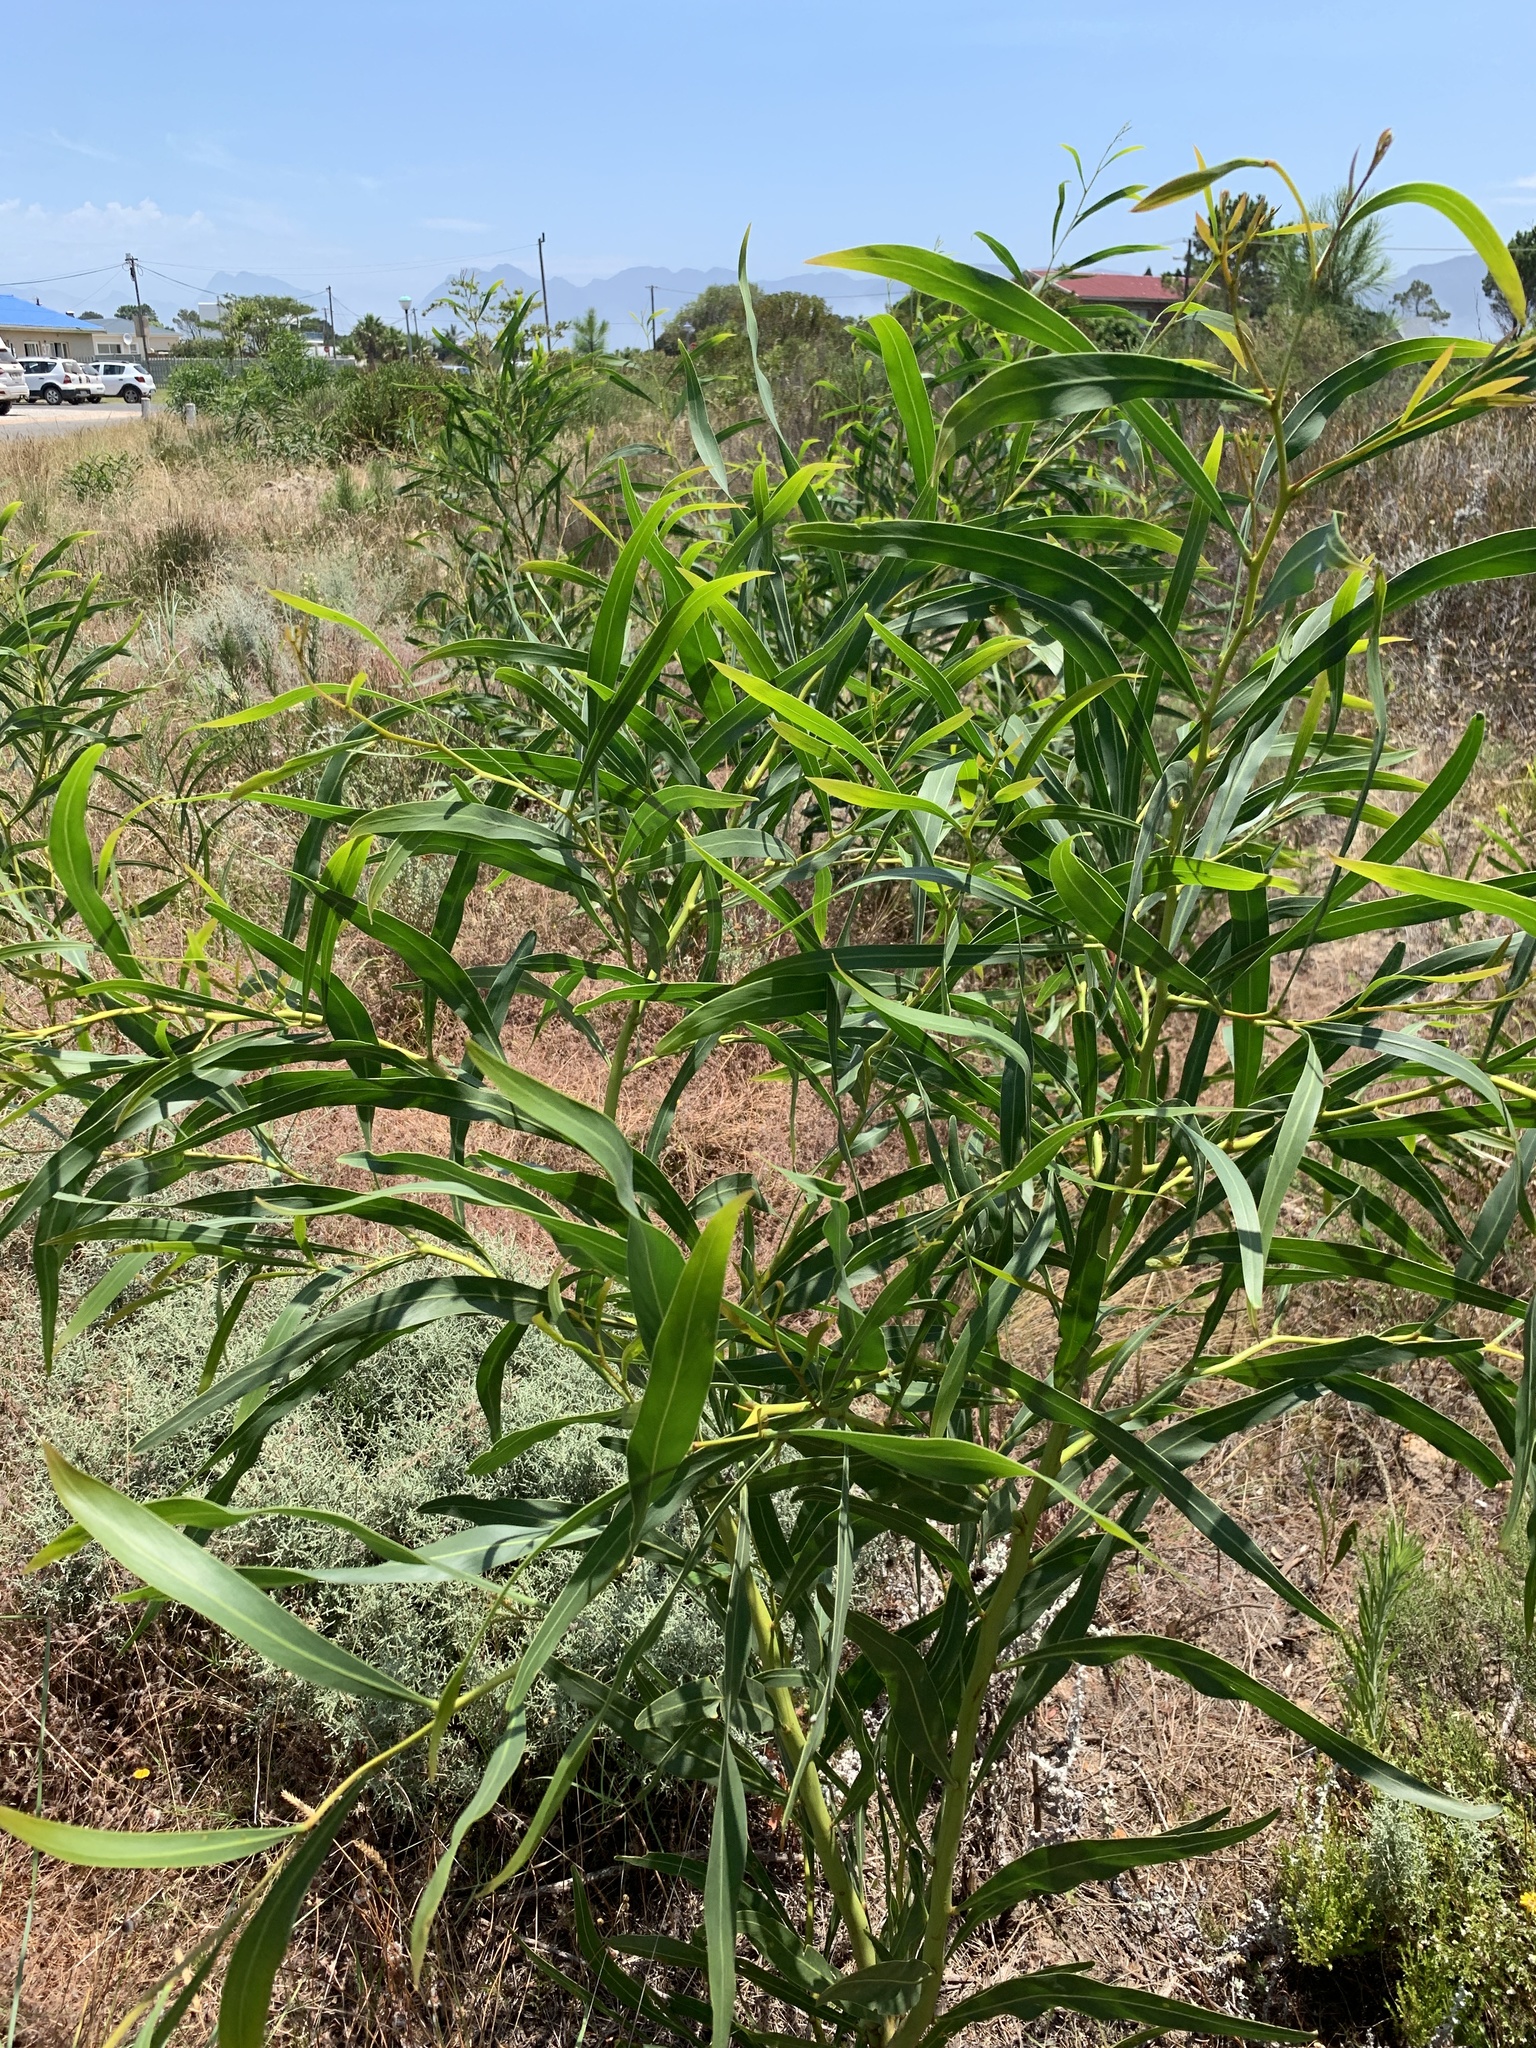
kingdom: Plantae
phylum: Tracheophyta
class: Magnoliopsida
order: Fabales
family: Fabaceae
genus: Acacia
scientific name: Acacia saligna
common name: Orange wattle
